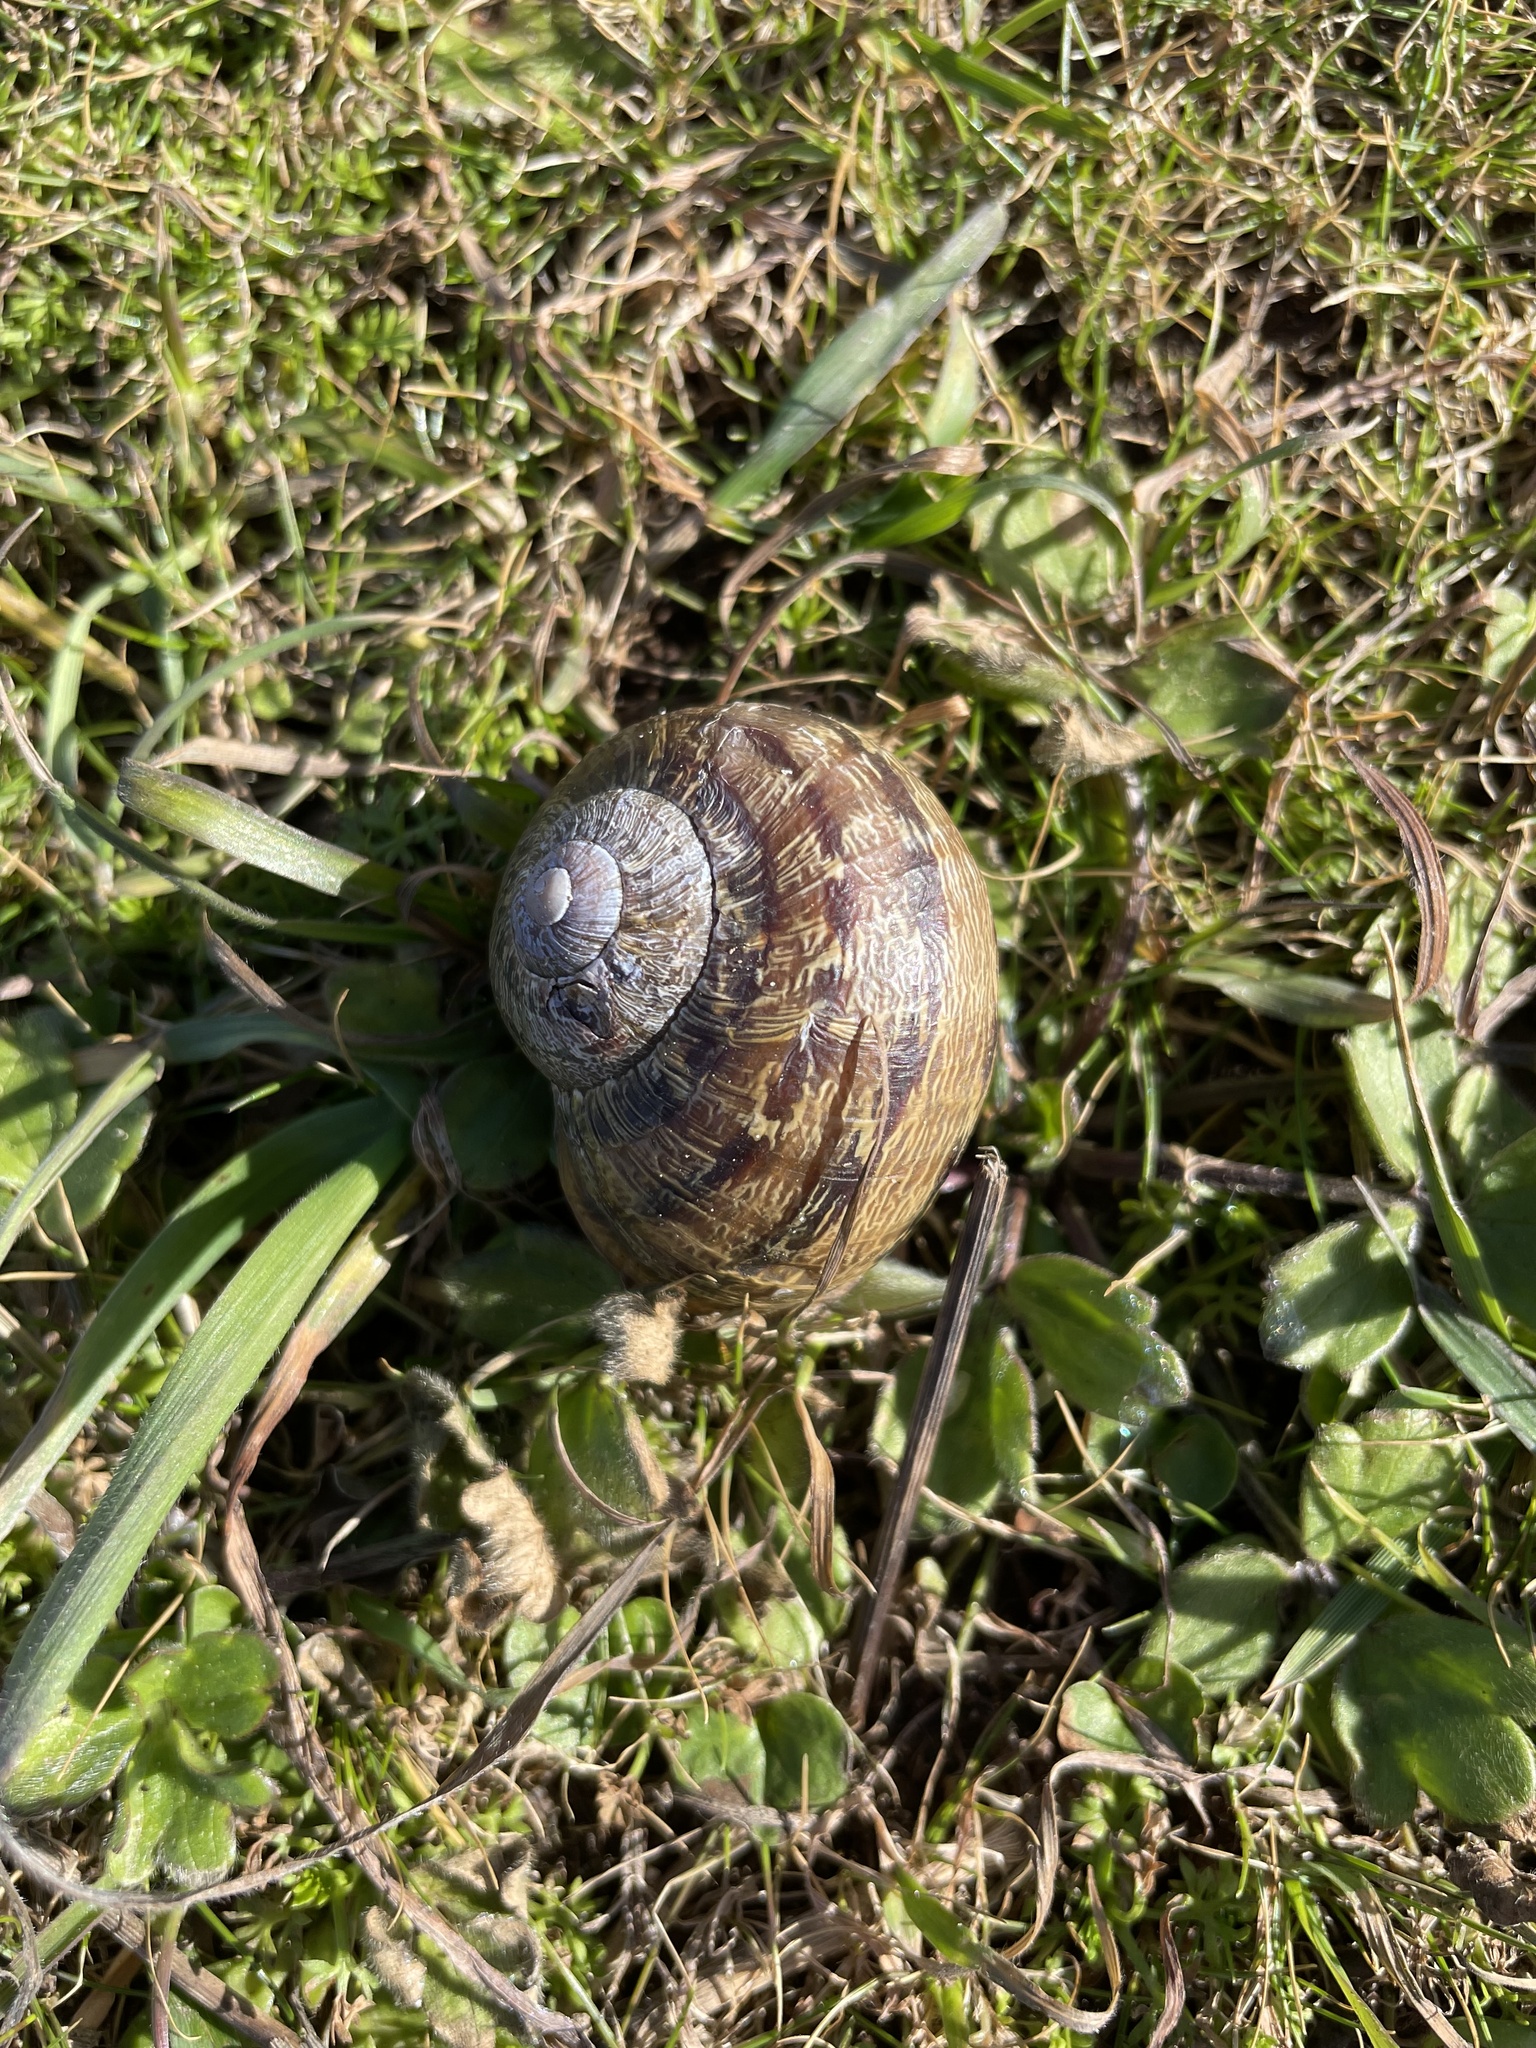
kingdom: Animalia
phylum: Mollusca
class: Gastropoda
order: Stylommatophora
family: Helicidae
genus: Cornu
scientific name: Cornu aspersum
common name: Brown garden snail
